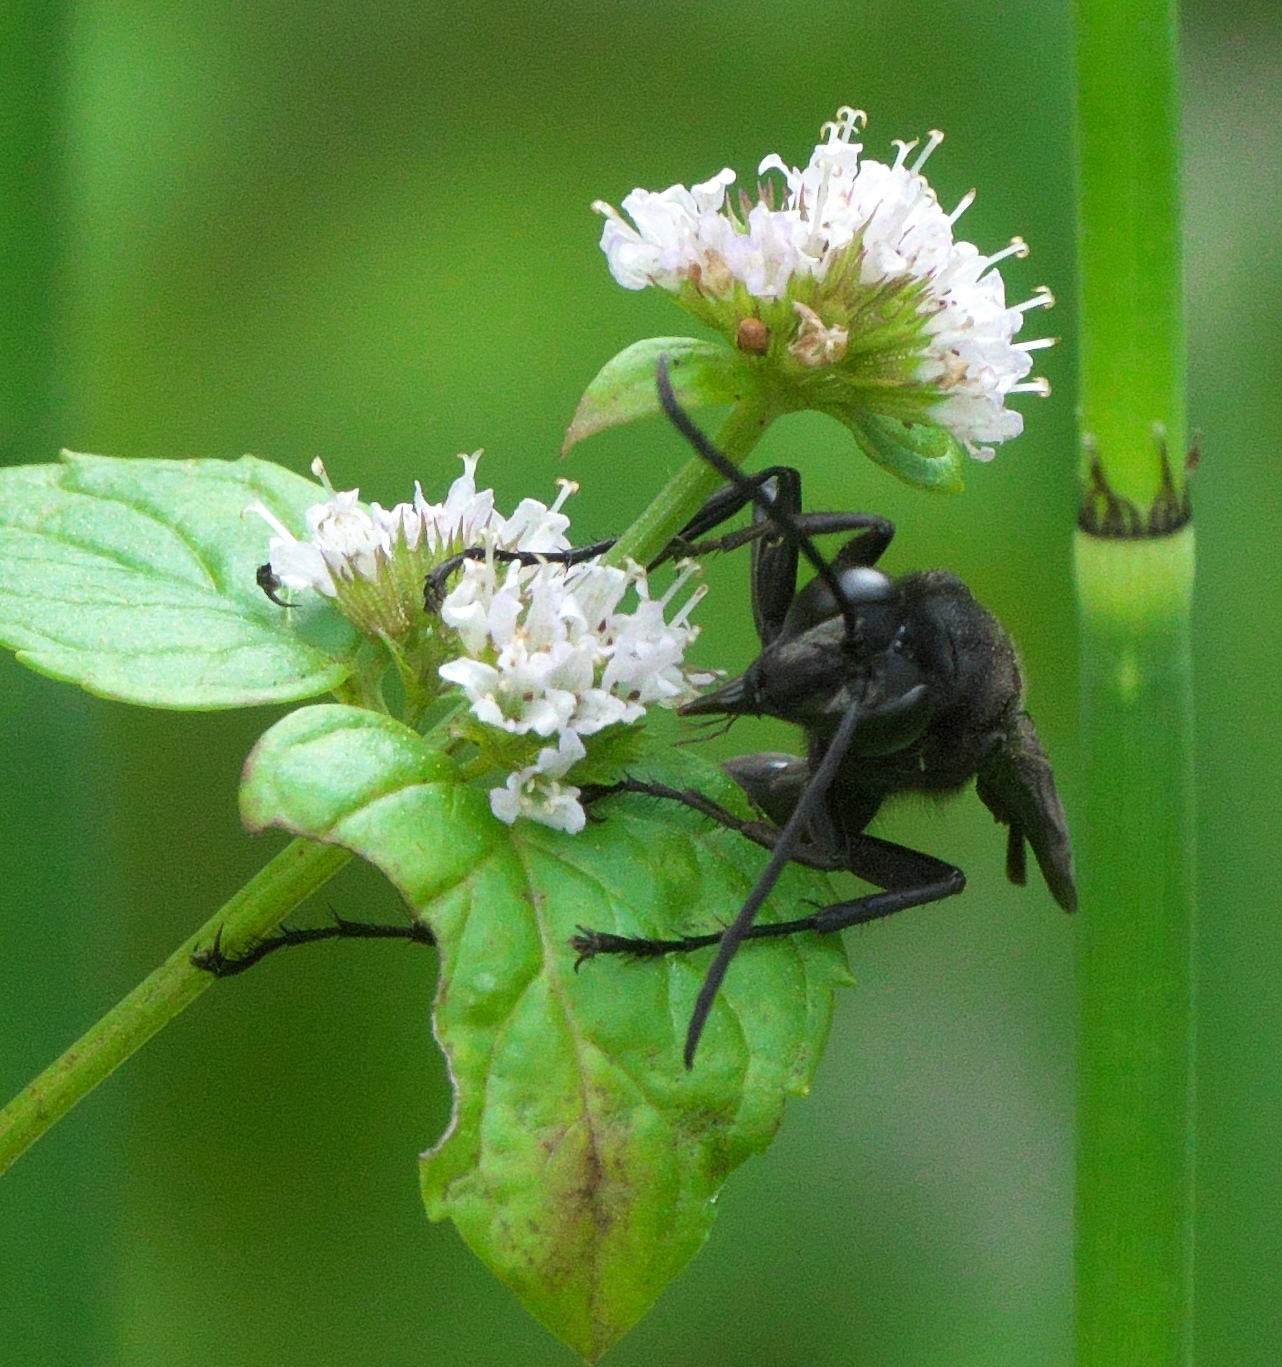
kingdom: Animalia
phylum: Arthropoda
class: Insecta
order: Hymenoptera
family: Sphecidae
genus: Sphex
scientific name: Sphex pensylvanicus
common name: Great black digger wasp
